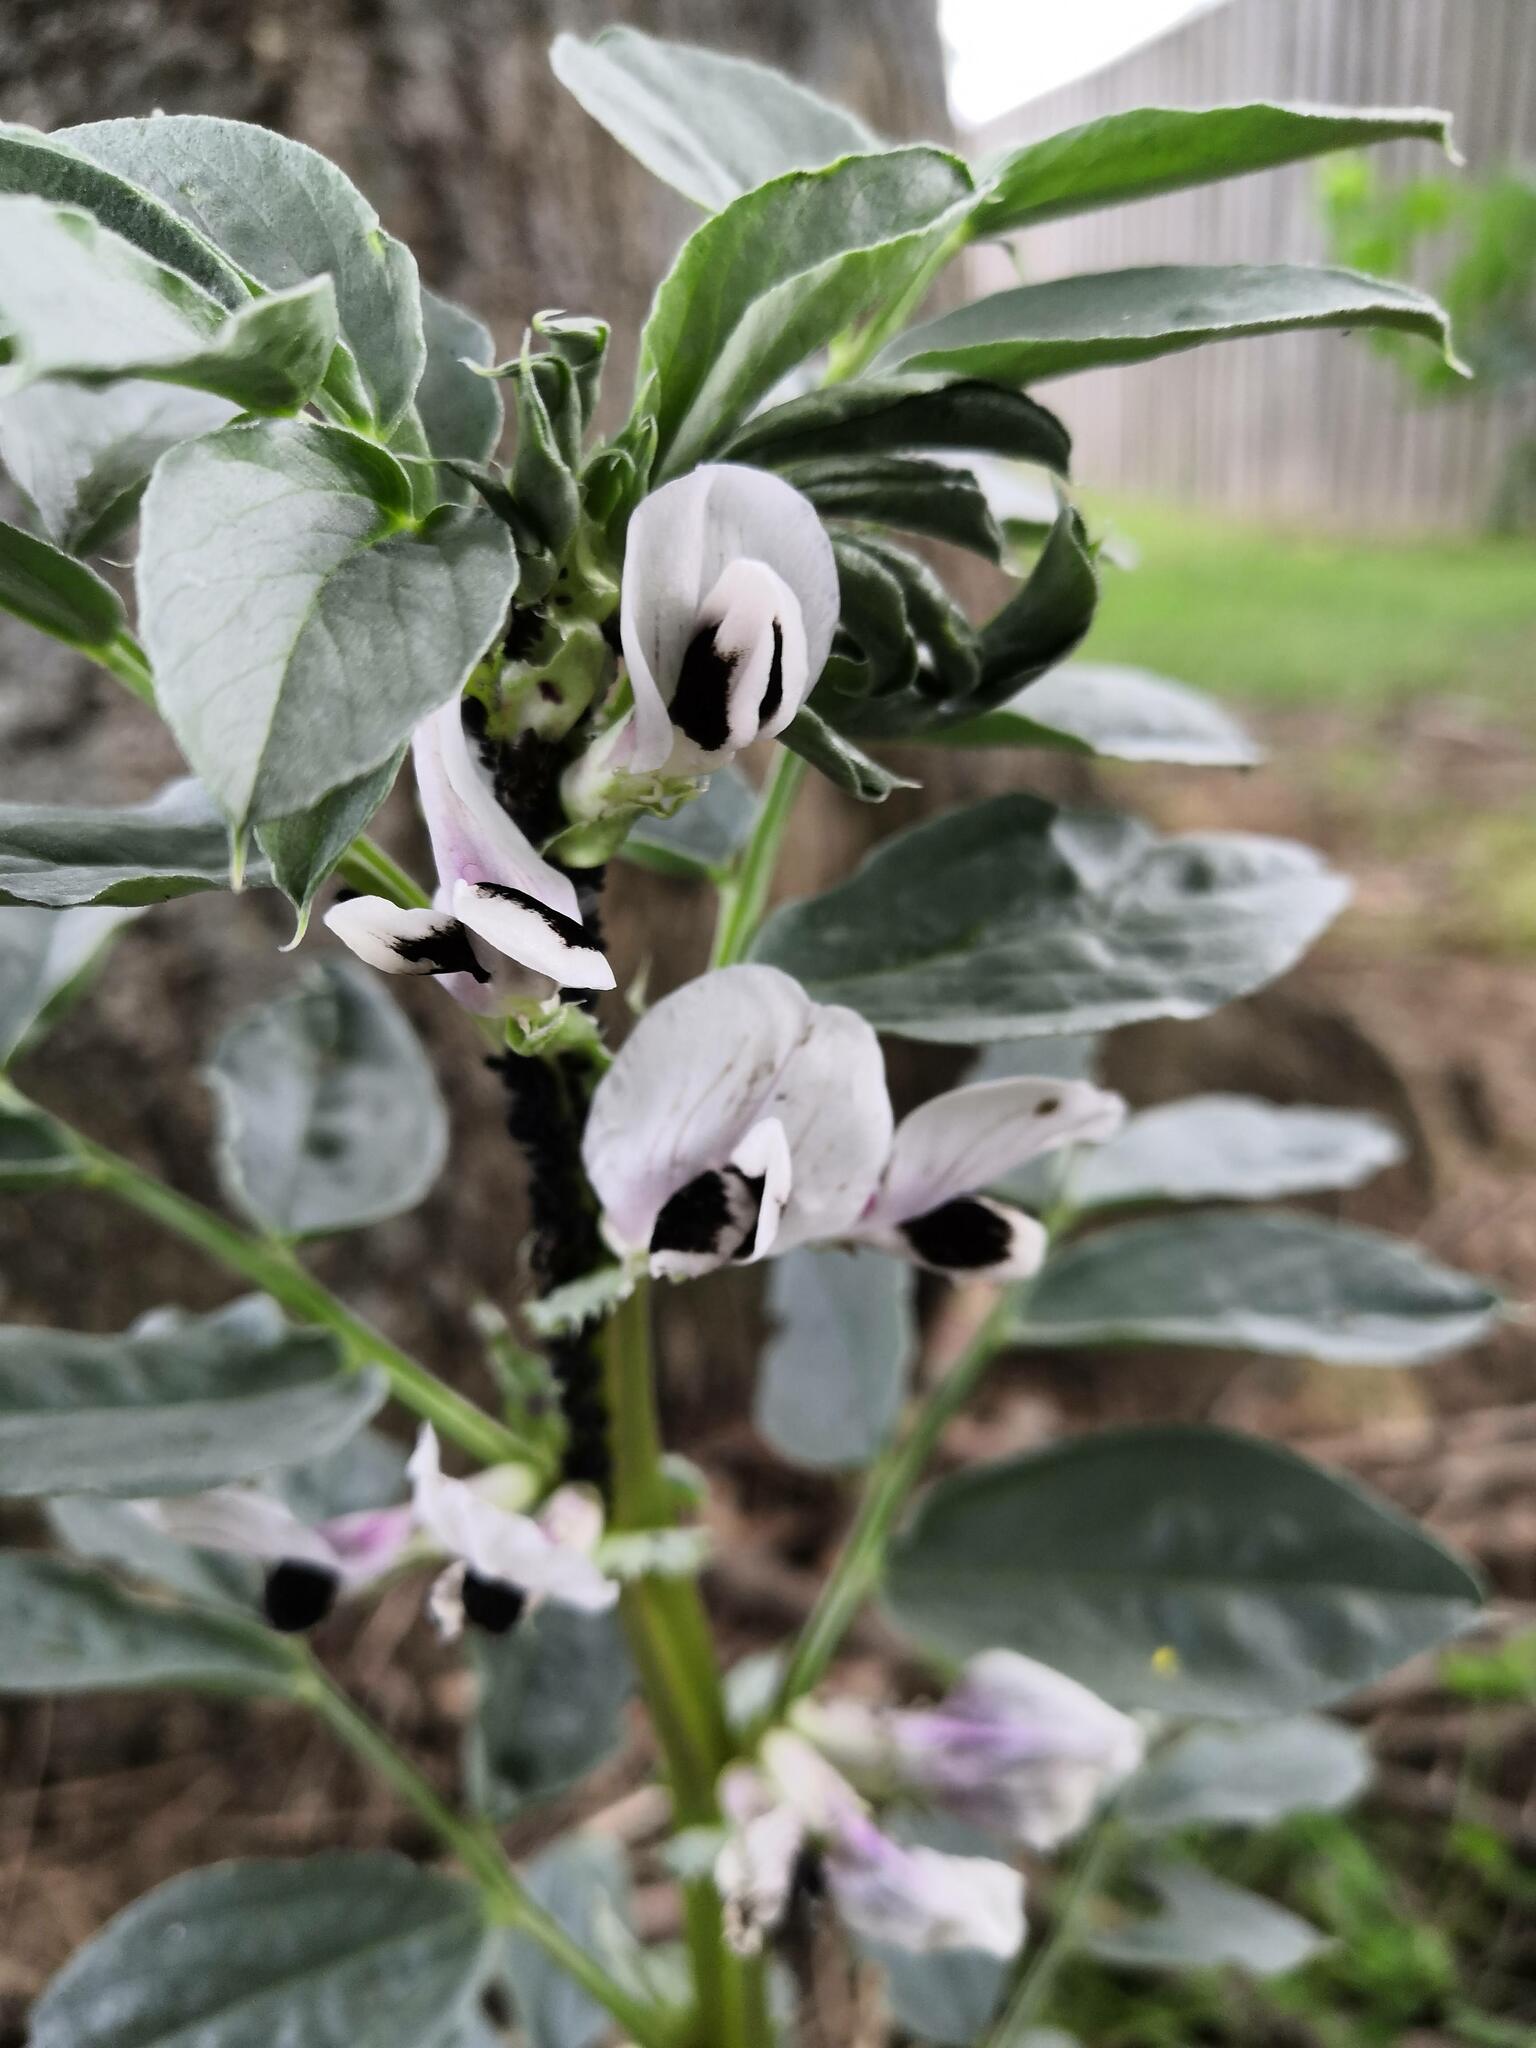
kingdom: Plantae
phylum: Tracheophyta
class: Magnoliopsida
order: Fabales
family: Fabaceae
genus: Vicia
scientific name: Vicia faba
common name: Broad bean
